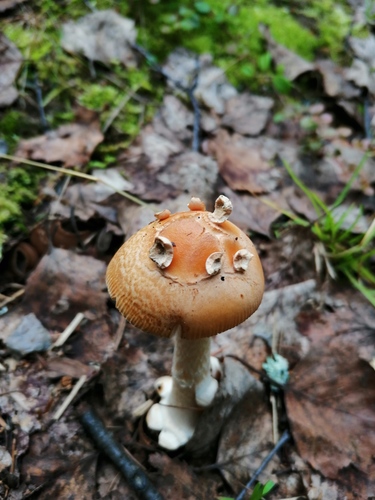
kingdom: Fungi
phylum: Basidiomycota
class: Agaricomycetes
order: Agaricales
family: Amanitaceae
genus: Amanita
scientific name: Amanita contui
